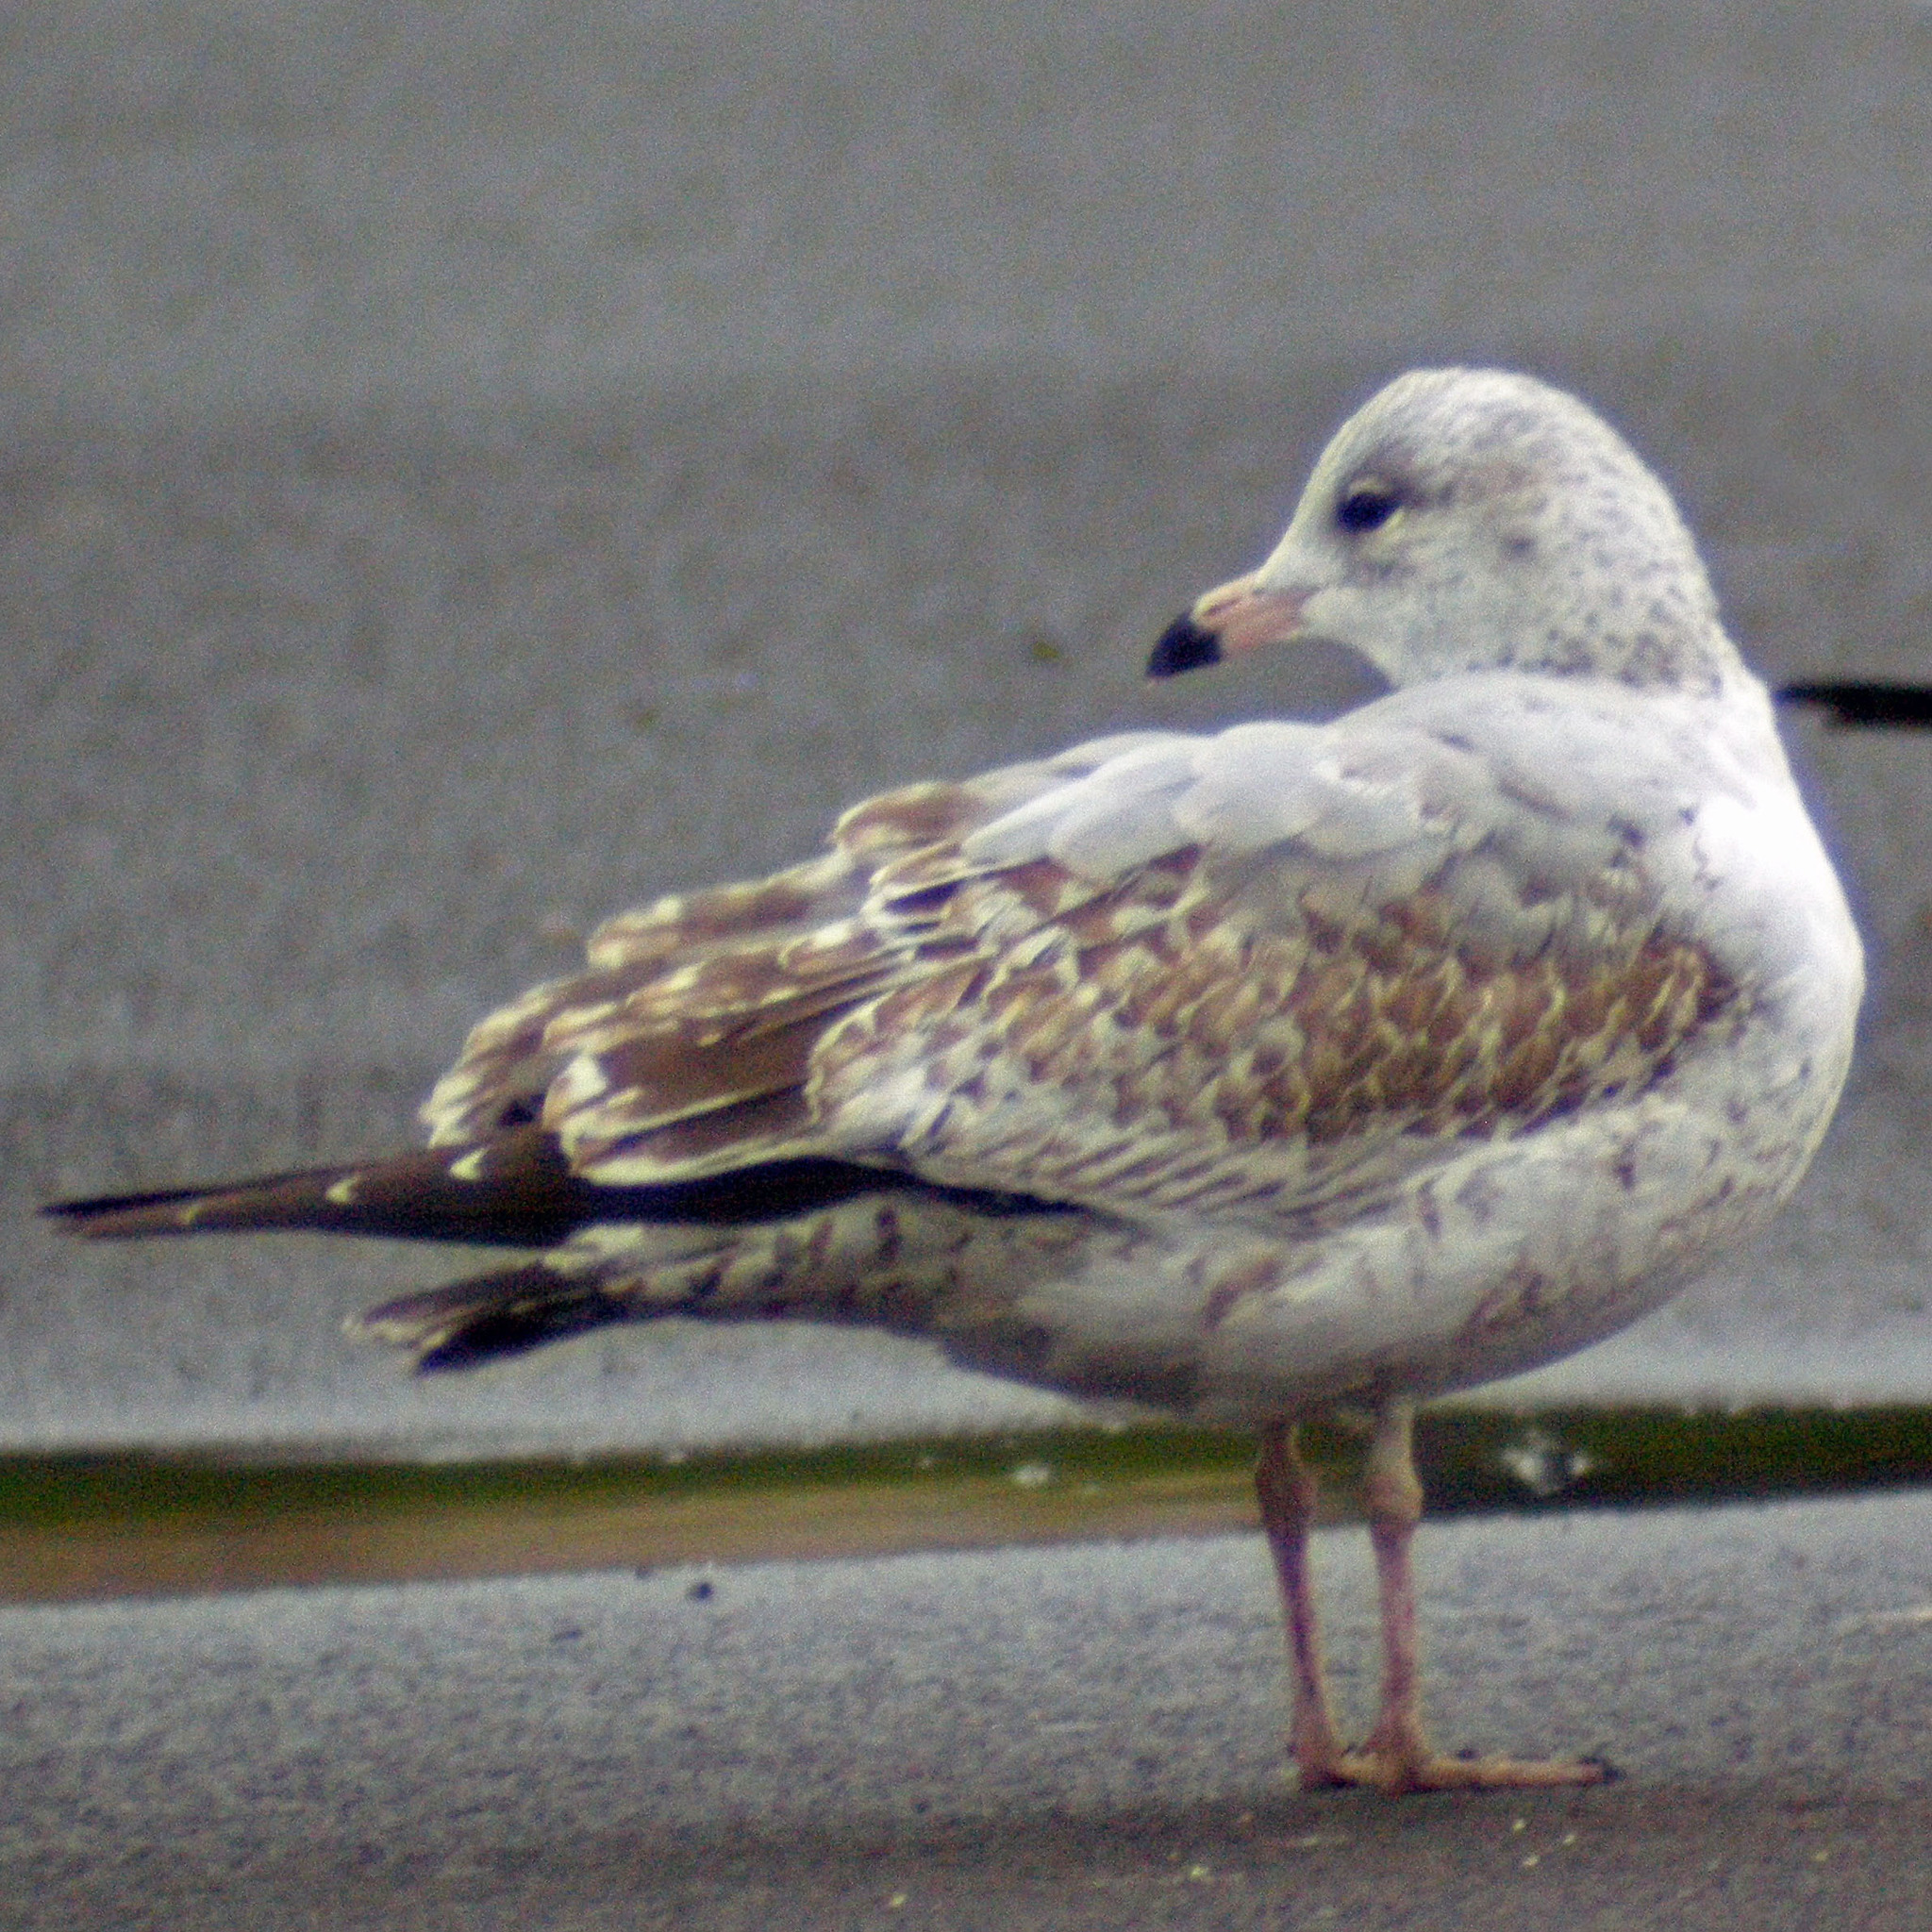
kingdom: Animalia
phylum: Chordata
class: Aves
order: Charadriiformes
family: Laridae
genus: Larus
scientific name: Larus delawarensis
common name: Ring-billed gull
